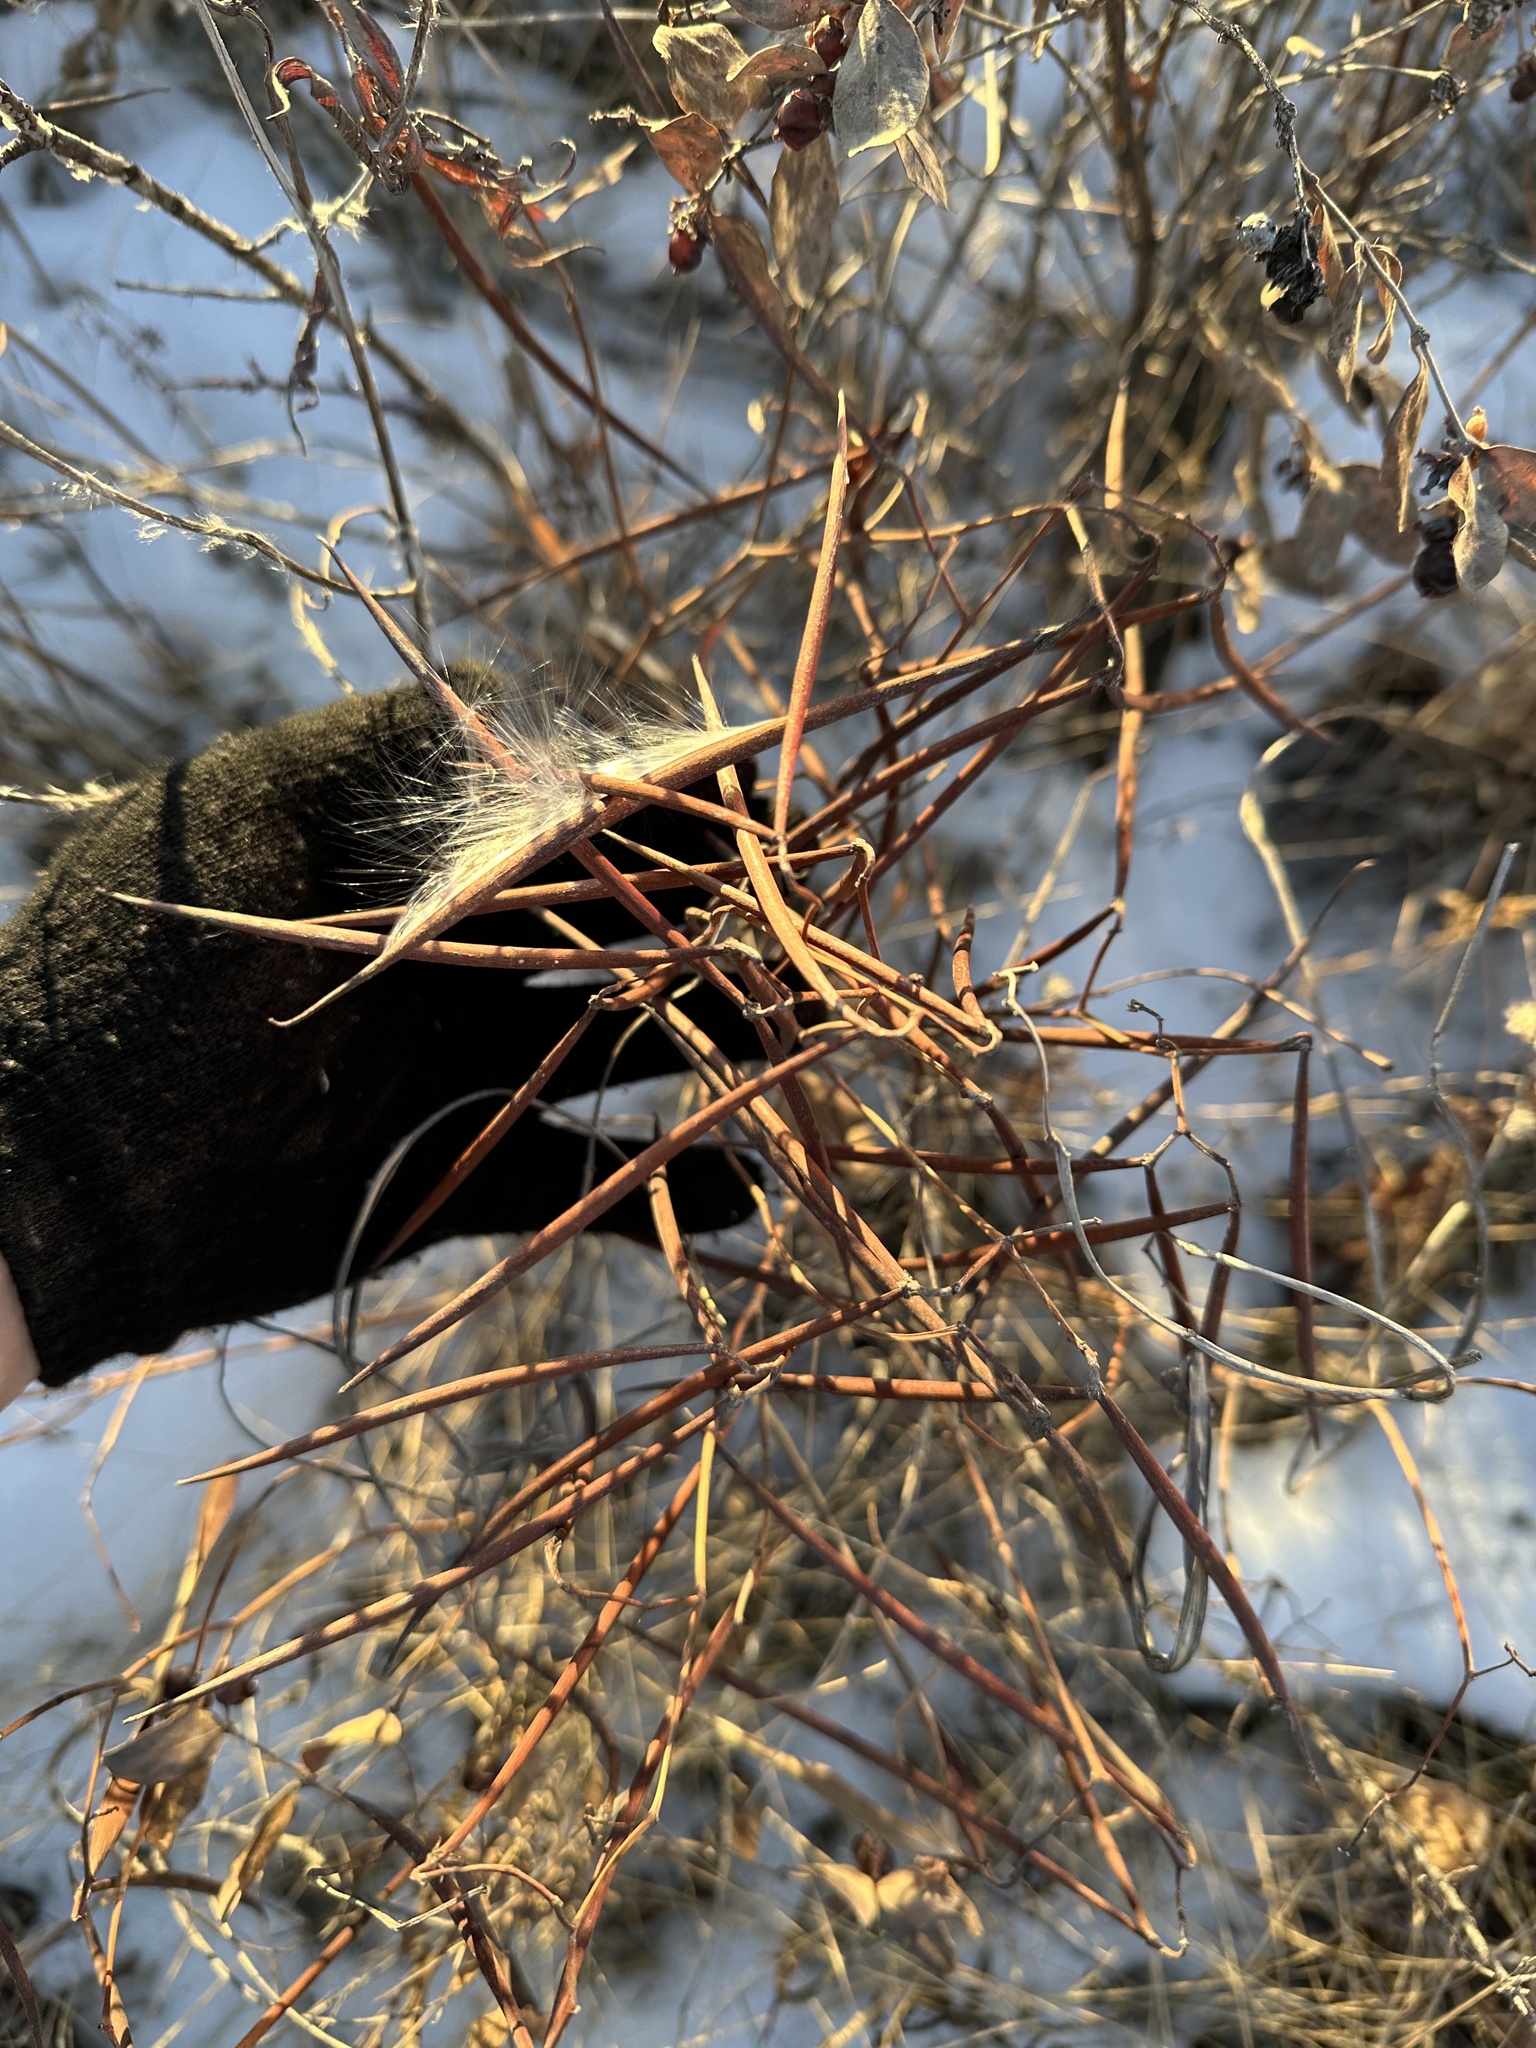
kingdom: Plantae
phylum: Tracheophyta
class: Magnoliopsida
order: Gentianales
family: Apocynaceae
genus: Apocynum
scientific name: Apocynum androsaemifolium
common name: Spreading dogbane
